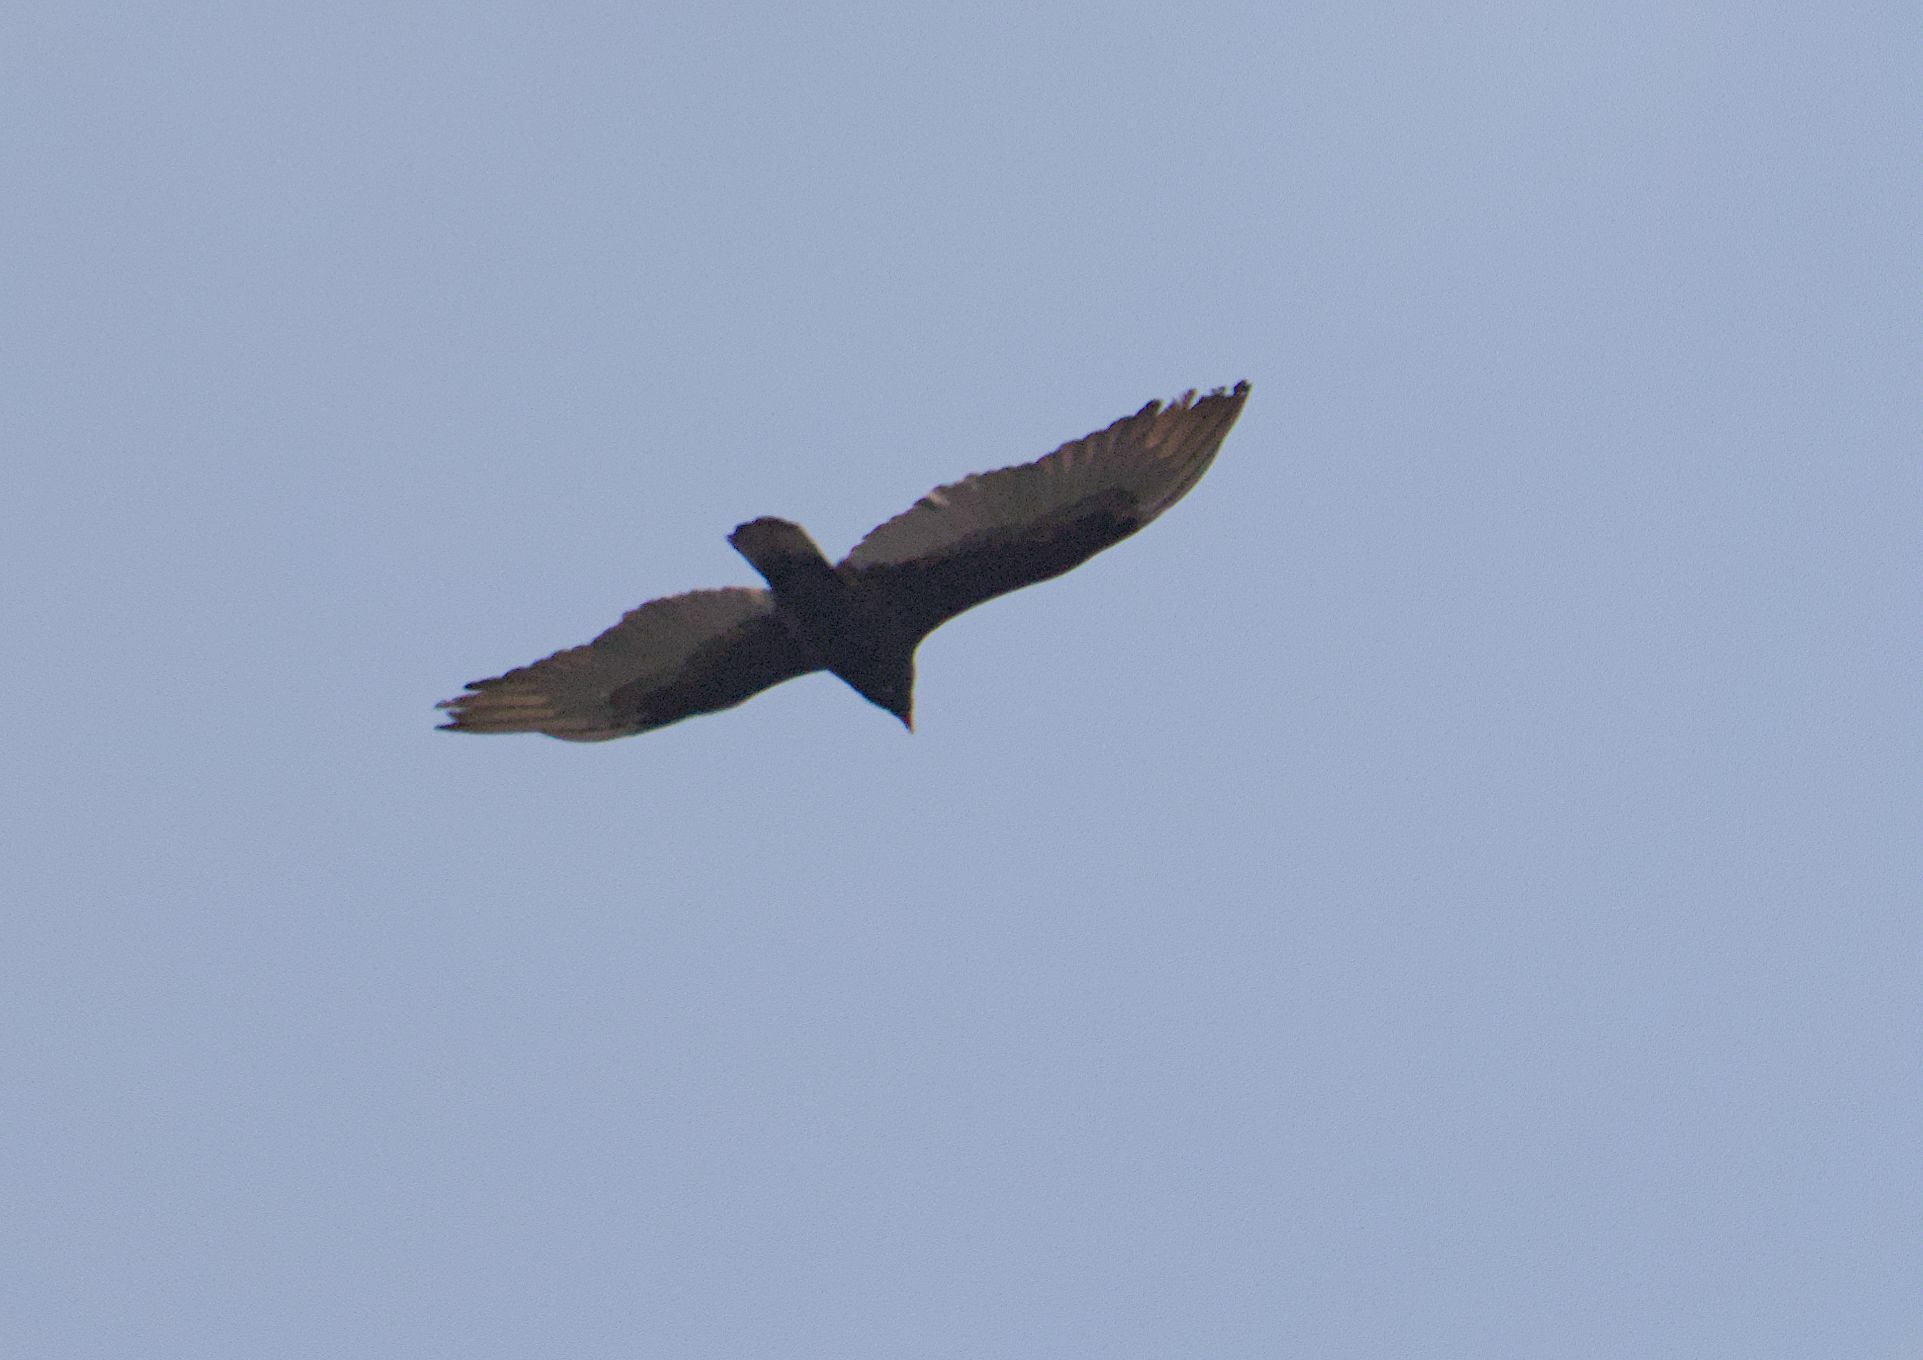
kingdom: Animalia
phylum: Chordata
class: Aves
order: Accipitriformes
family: Cathartidae
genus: Cathartes
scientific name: Cathartes aura
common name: Turkey vulture
